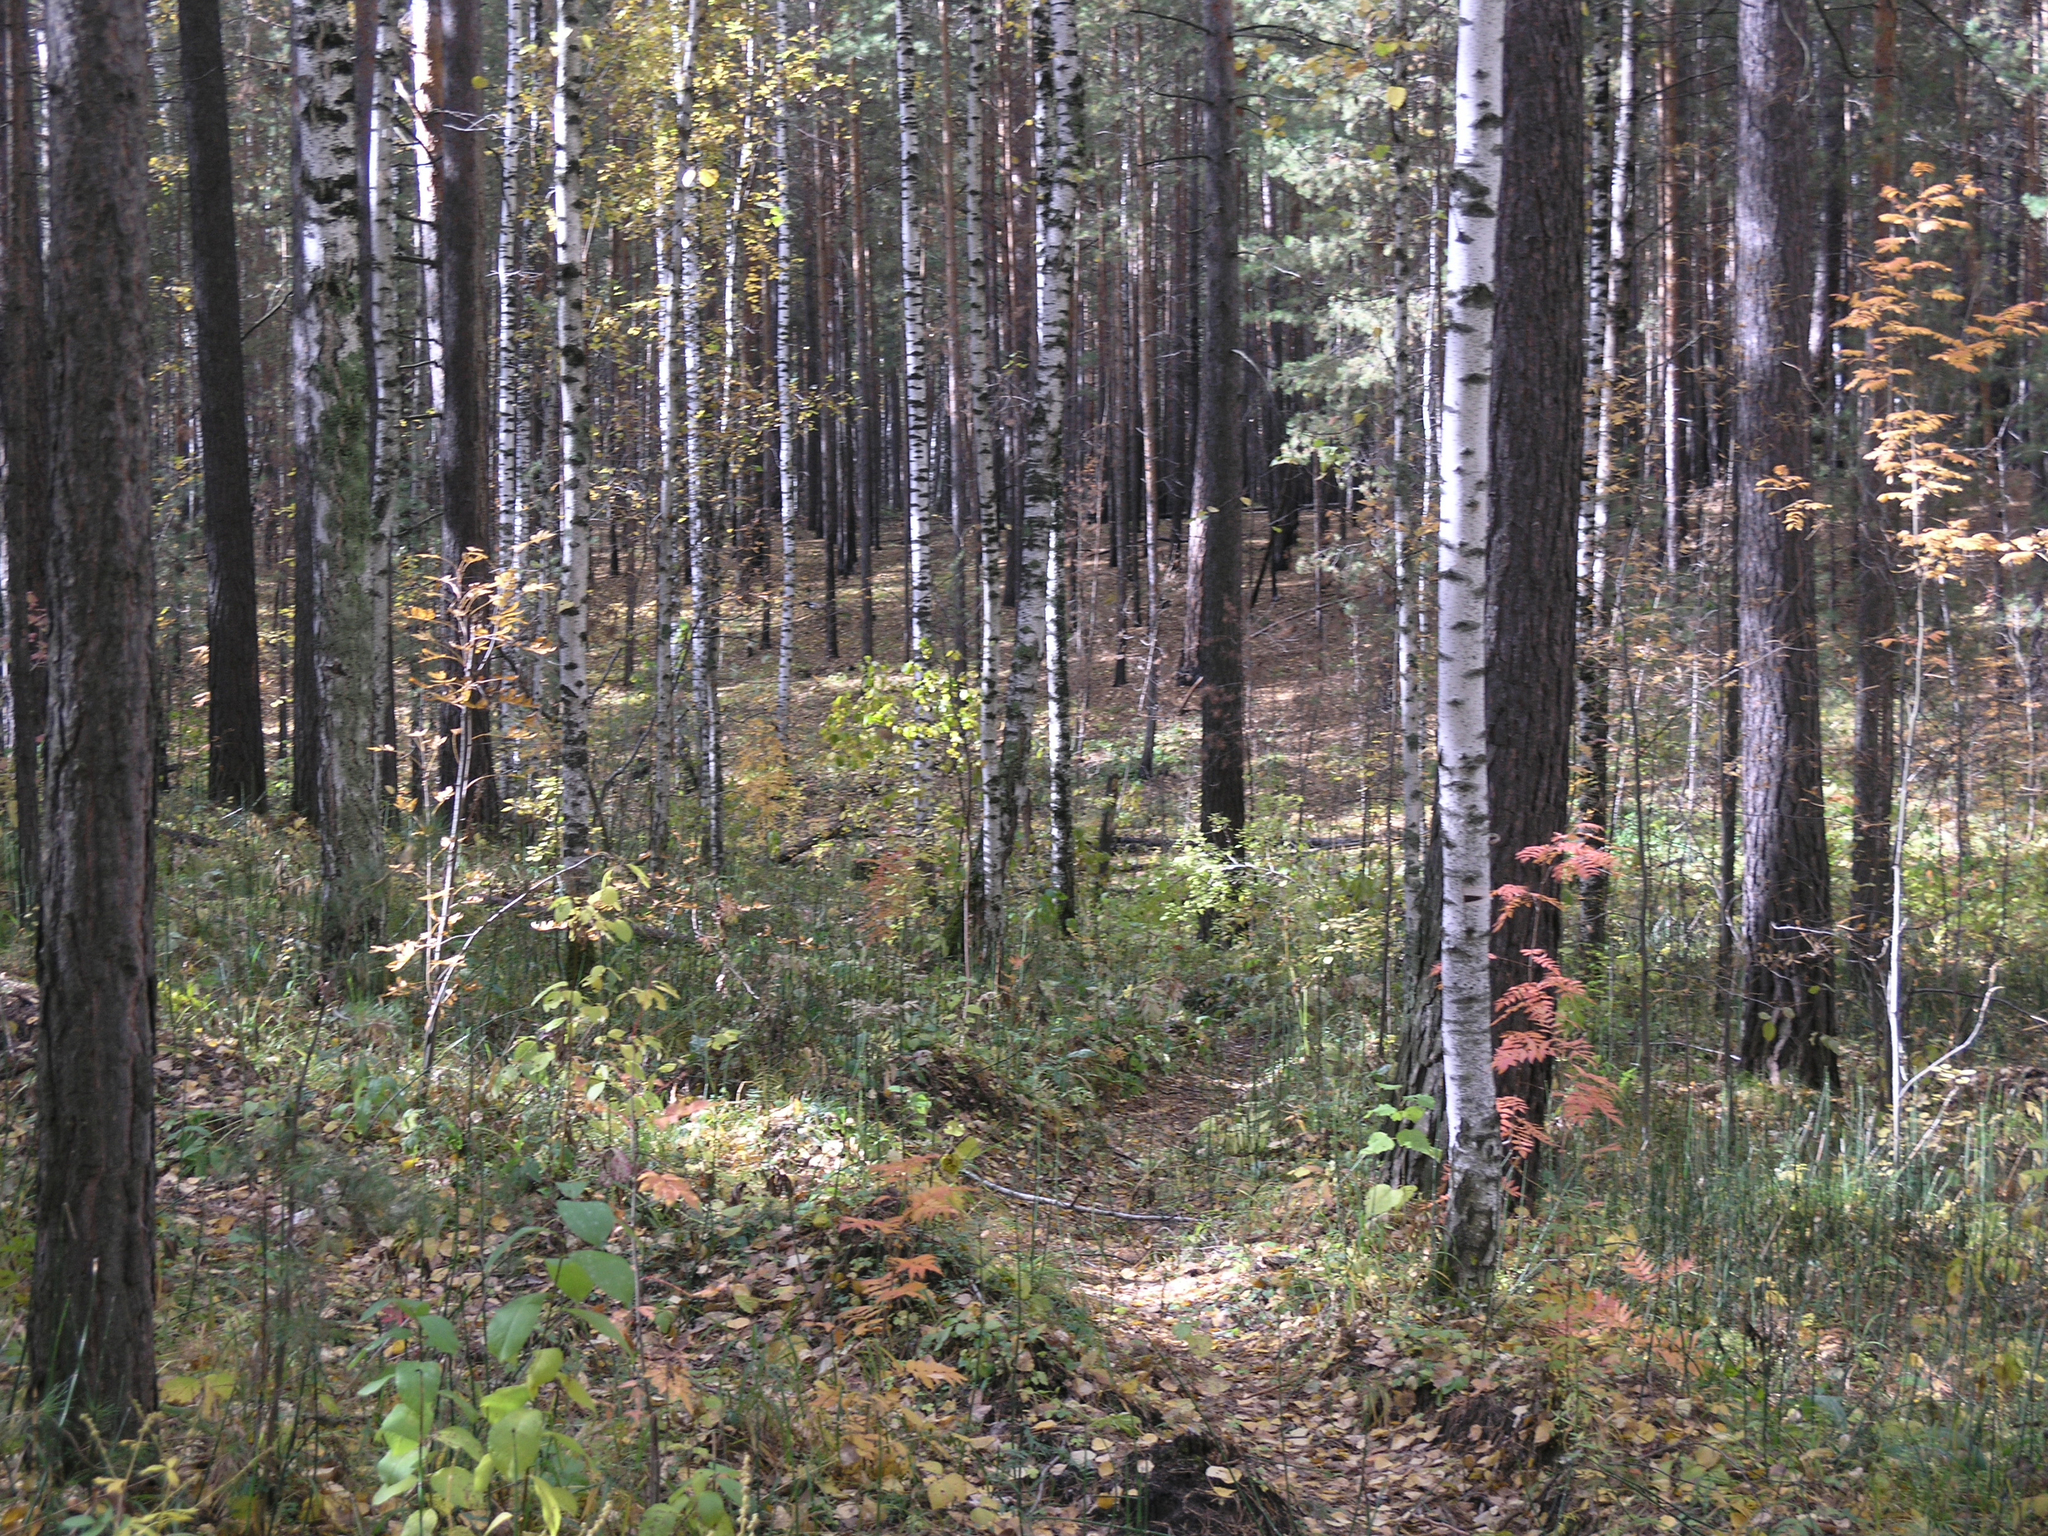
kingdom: Plantae
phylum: Tracheophyta
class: Pinopsida
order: Pinales
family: Pinaceae
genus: Pinus
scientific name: Pinus sylvestris
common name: Scots pine
